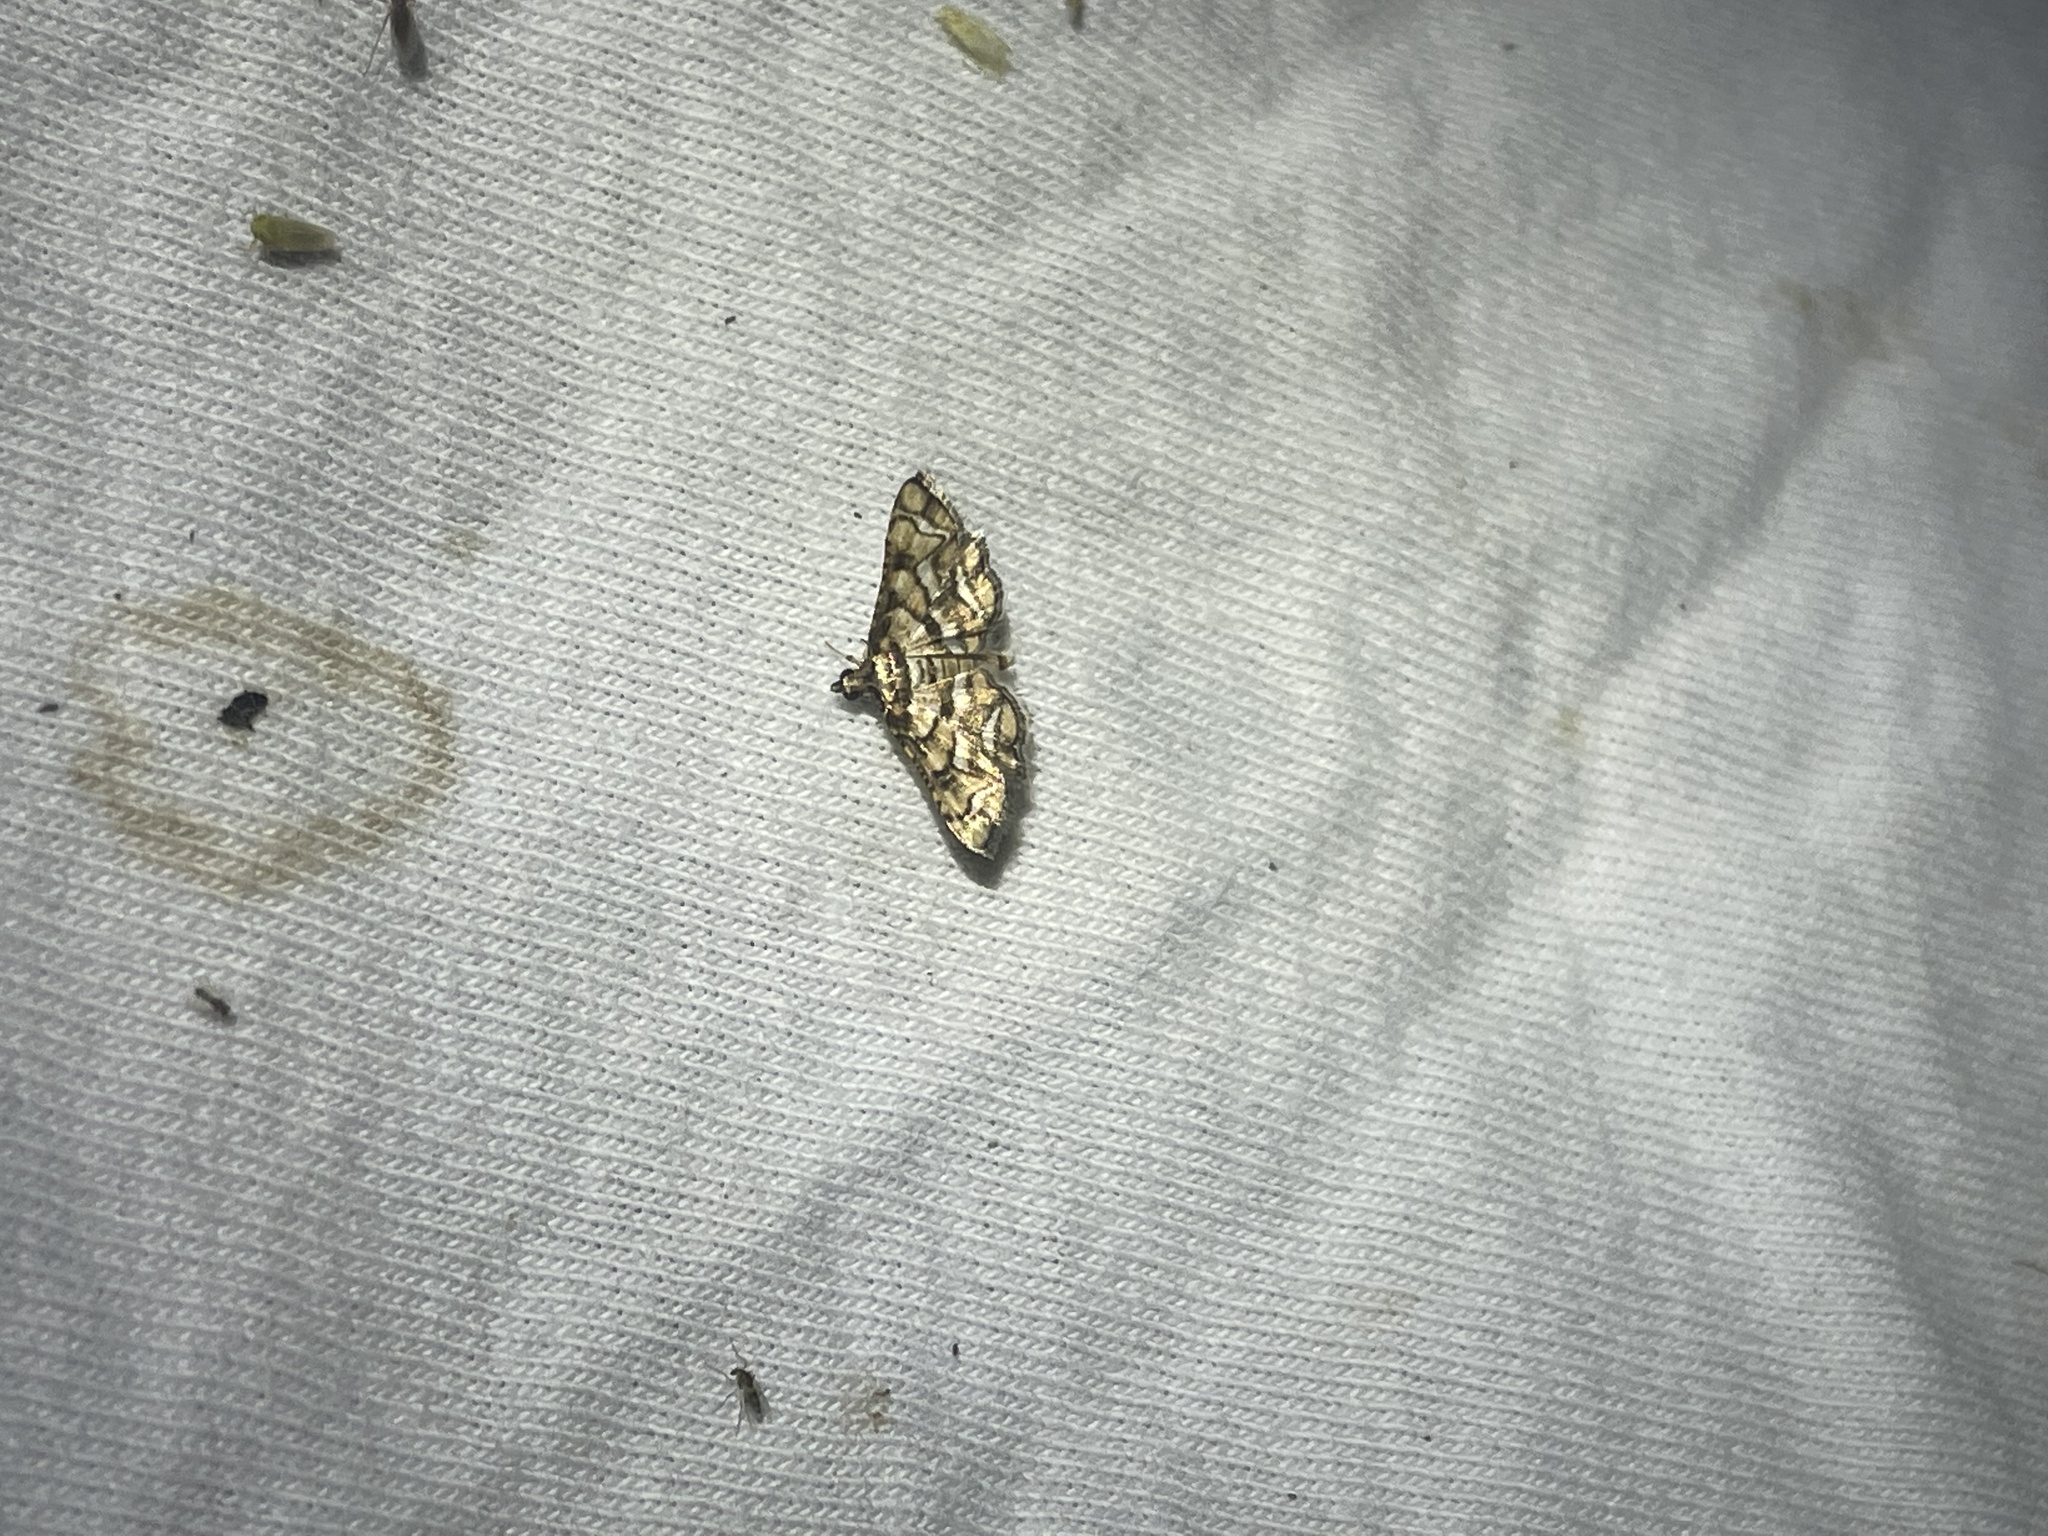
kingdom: Animalia
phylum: Arthropoda
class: Insecta
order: Lepidoptera
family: Crambidae
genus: Hileithia
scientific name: Hileithia magualis
